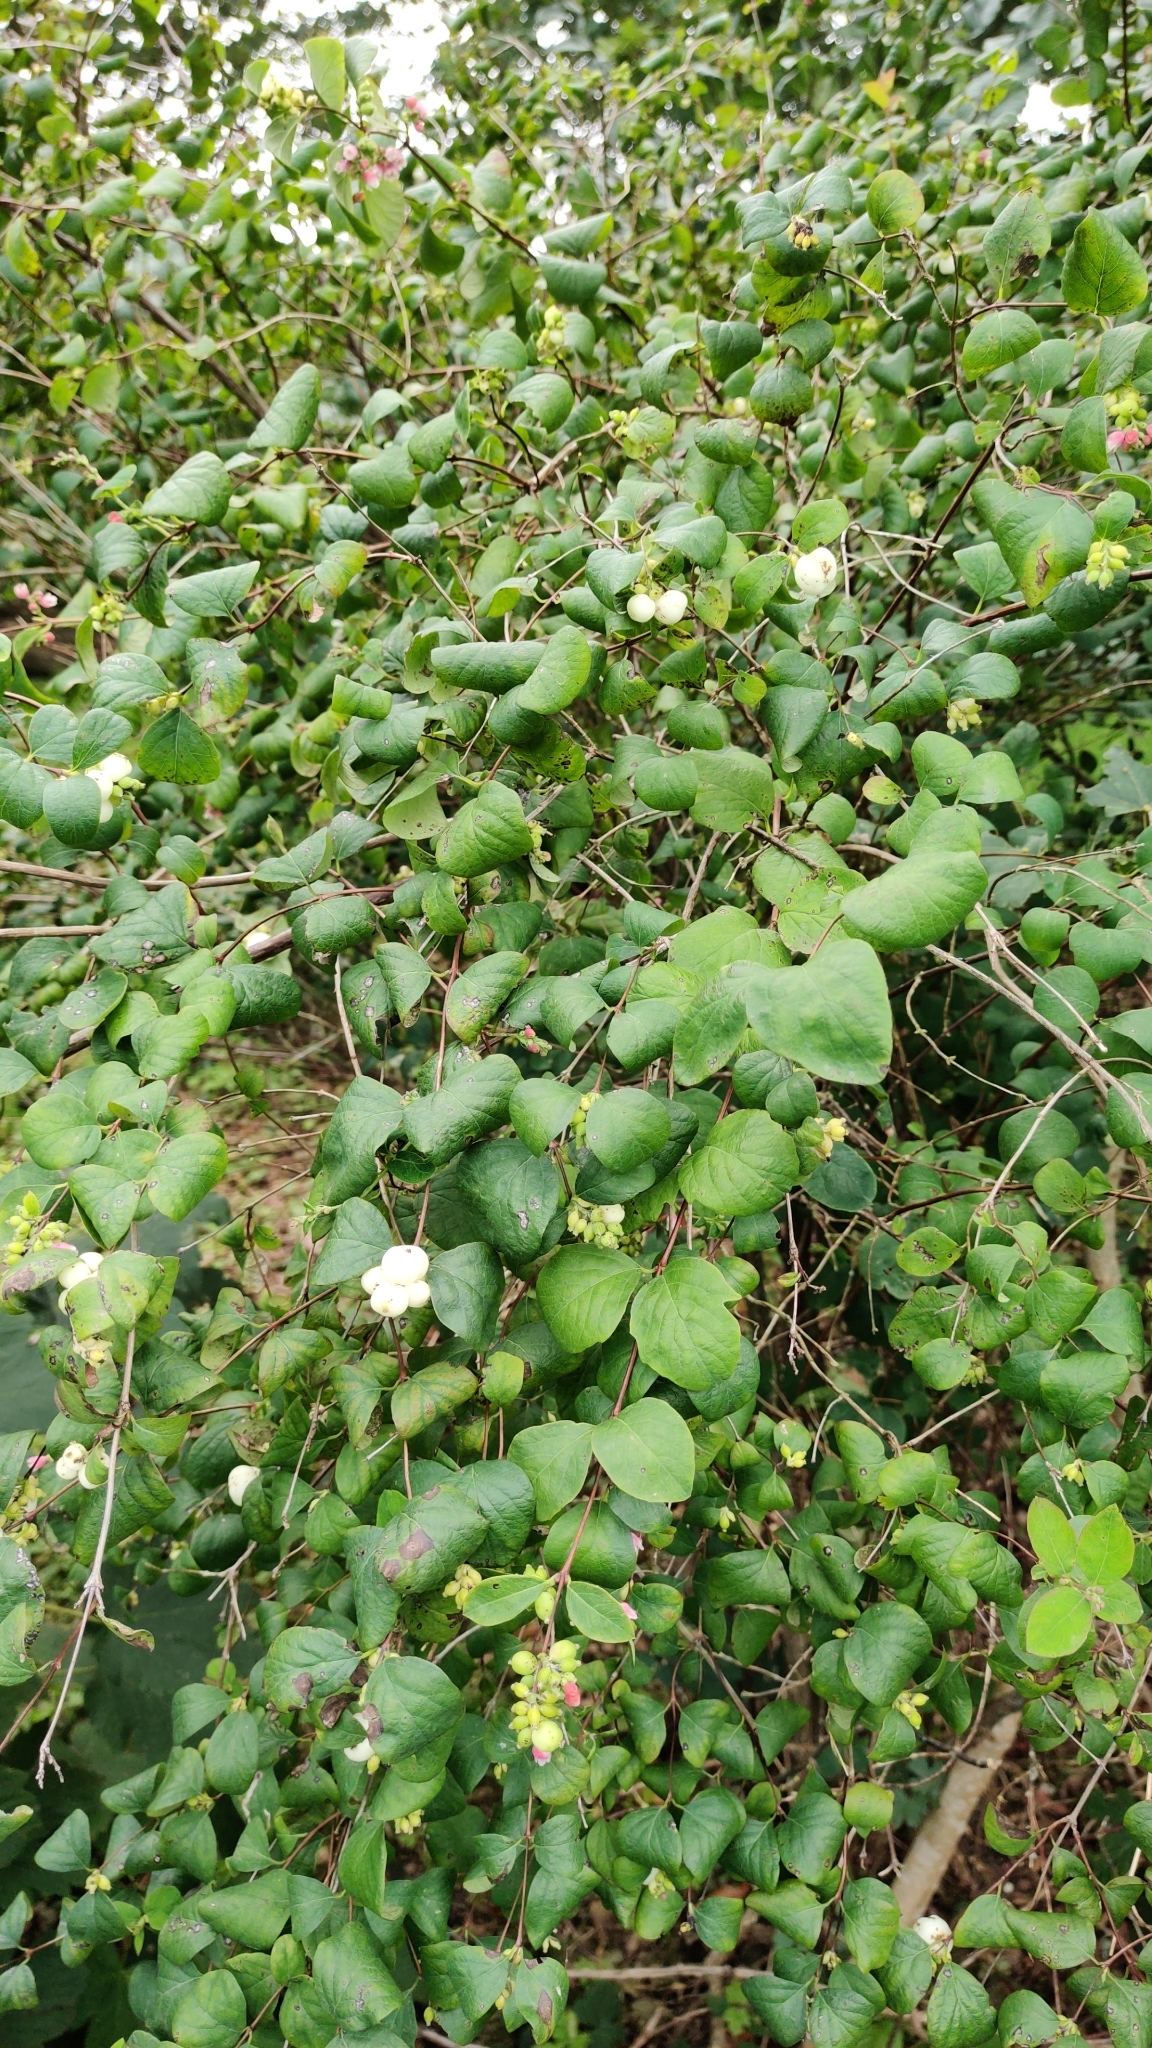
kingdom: Plantae
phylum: Tracheophyta
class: Magnoliopsida
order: Dipsacales
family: Caprifoliaceae
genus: Symphoricarpos
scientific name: Symphoricarpos albus
